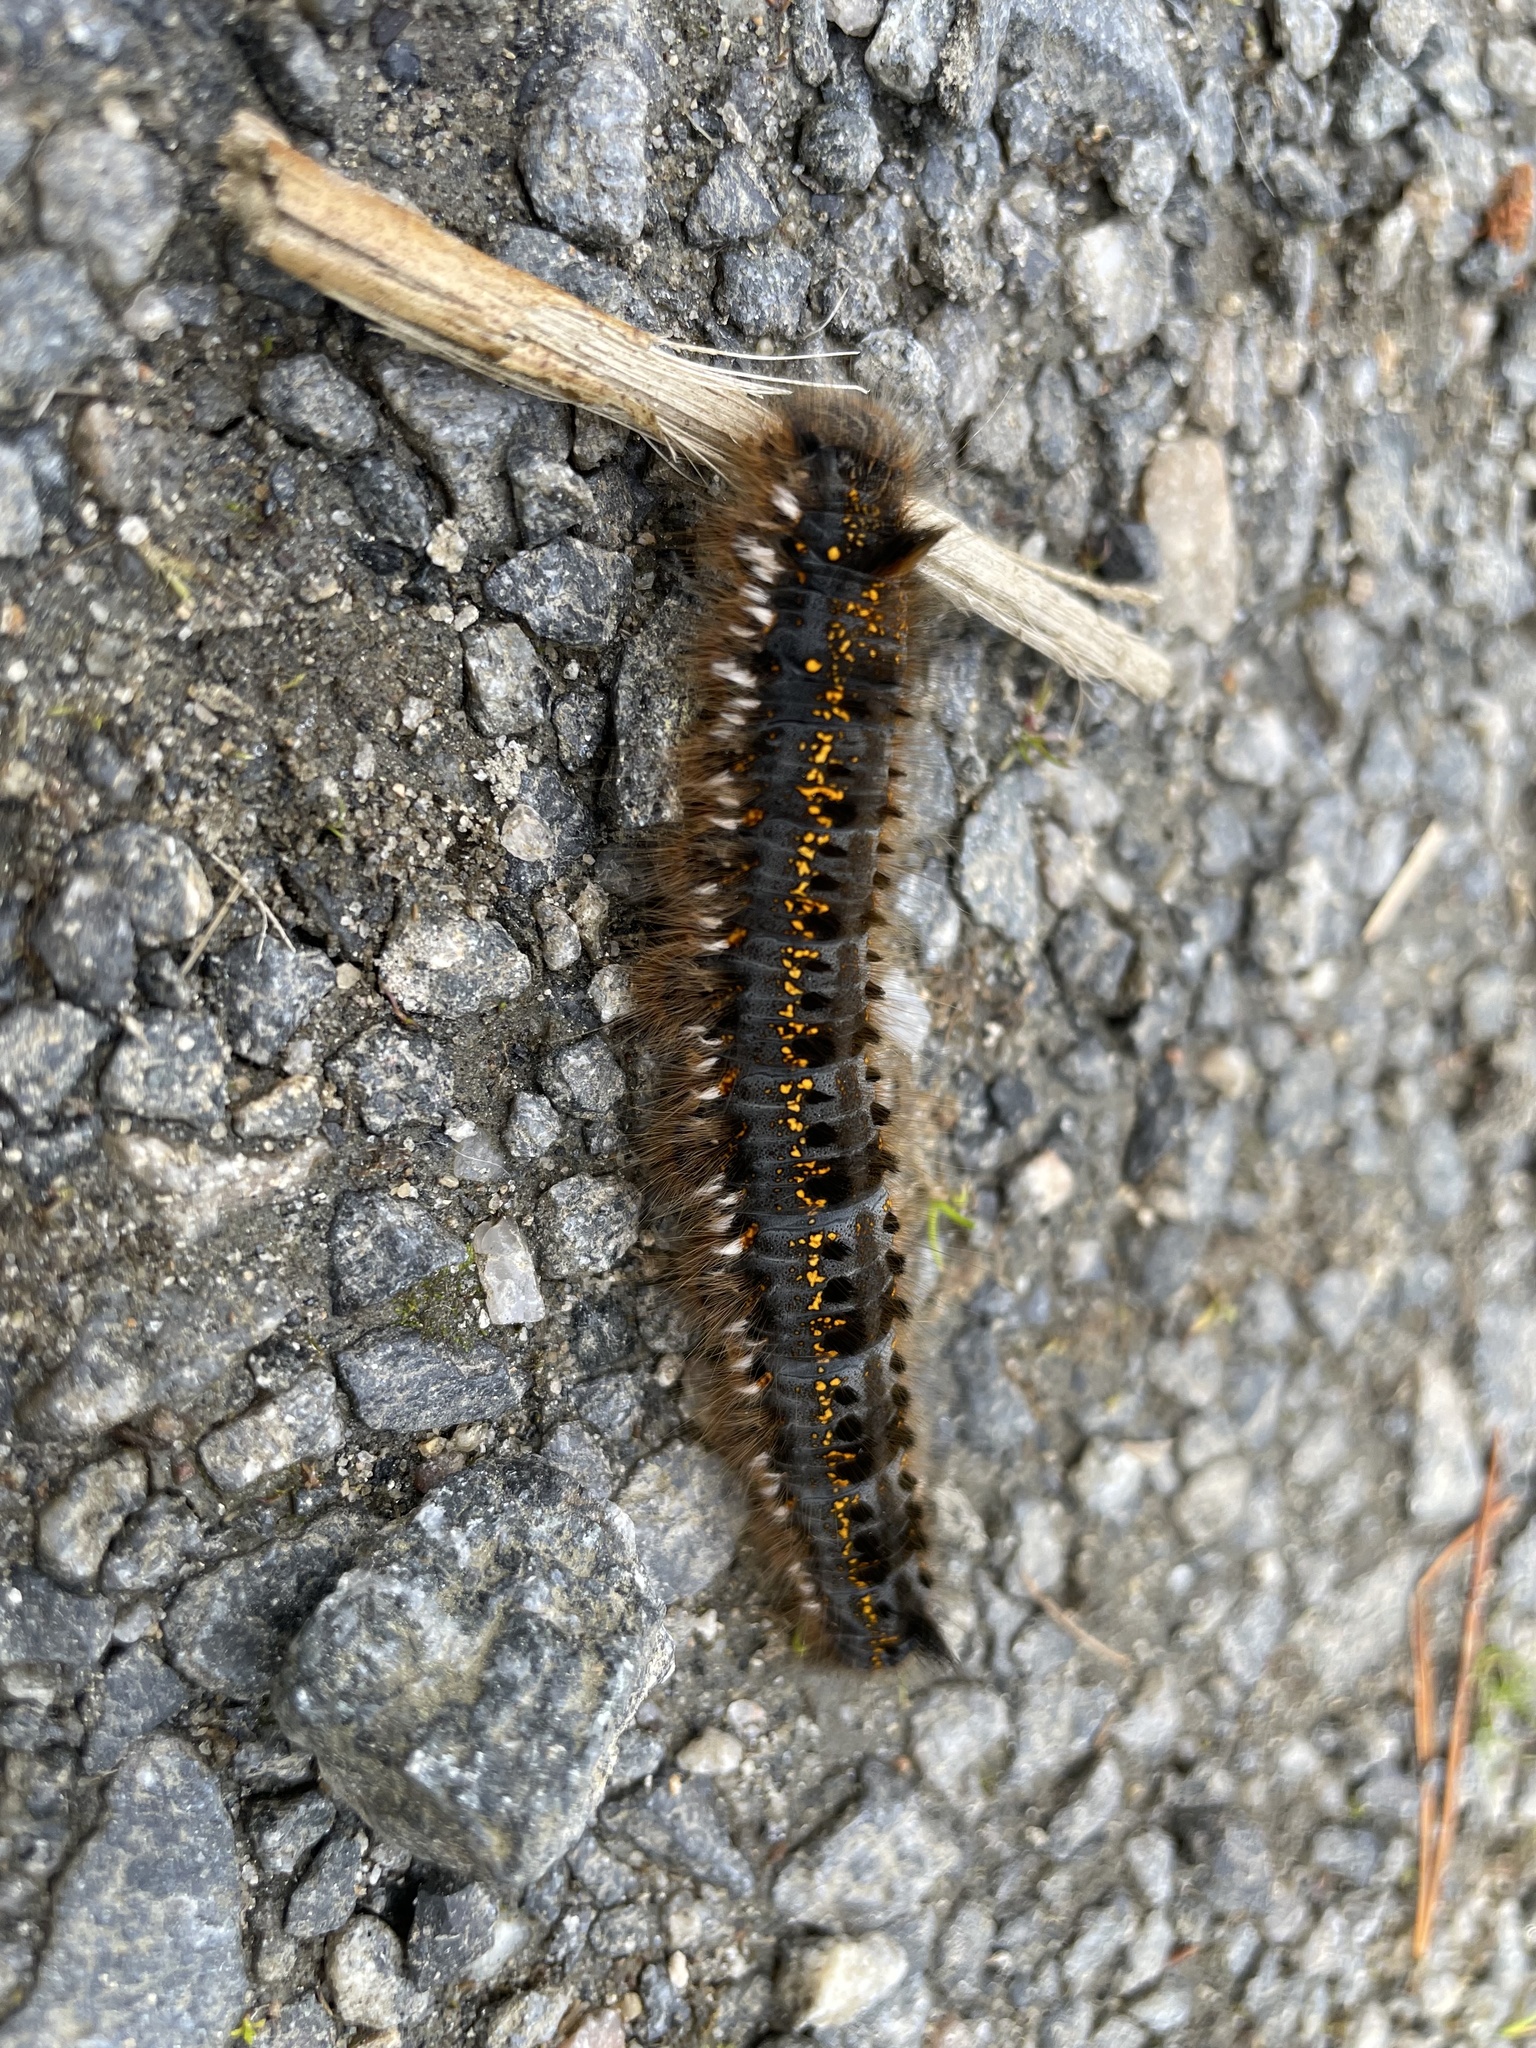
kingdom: Animalia
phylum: Arthropoda
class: Insecta
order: Lepidoptera
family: Lasiocampidae
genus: Euthrix
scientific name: Euthrix potatoria
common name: Drinker
